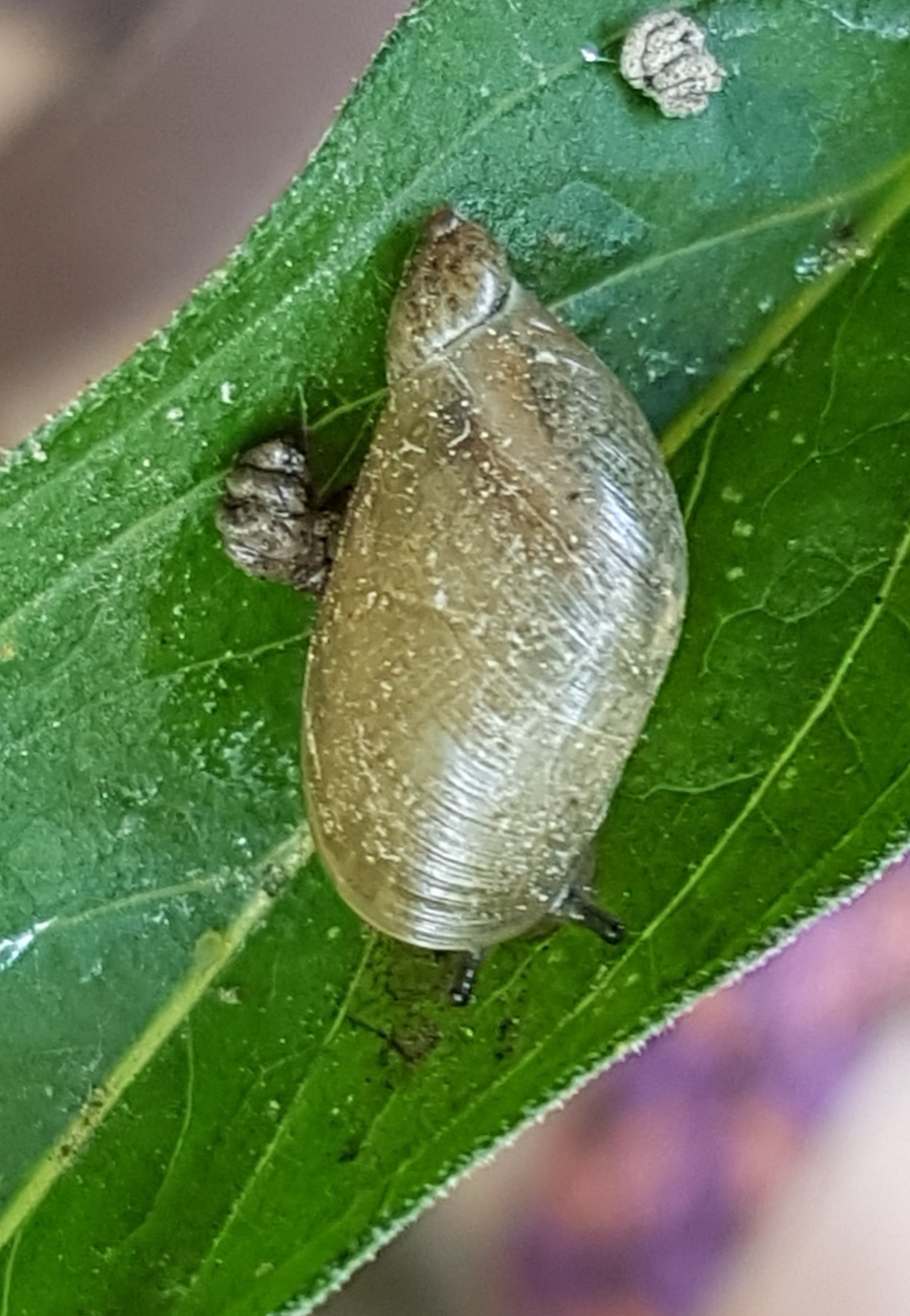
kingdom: Animalia
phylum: Mollusca
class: Gastropoda
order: Stylommatophora
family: Succineidae
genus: Oxyloma
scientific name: Oxyloma elegans
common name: Pfeiffer's amber snail
